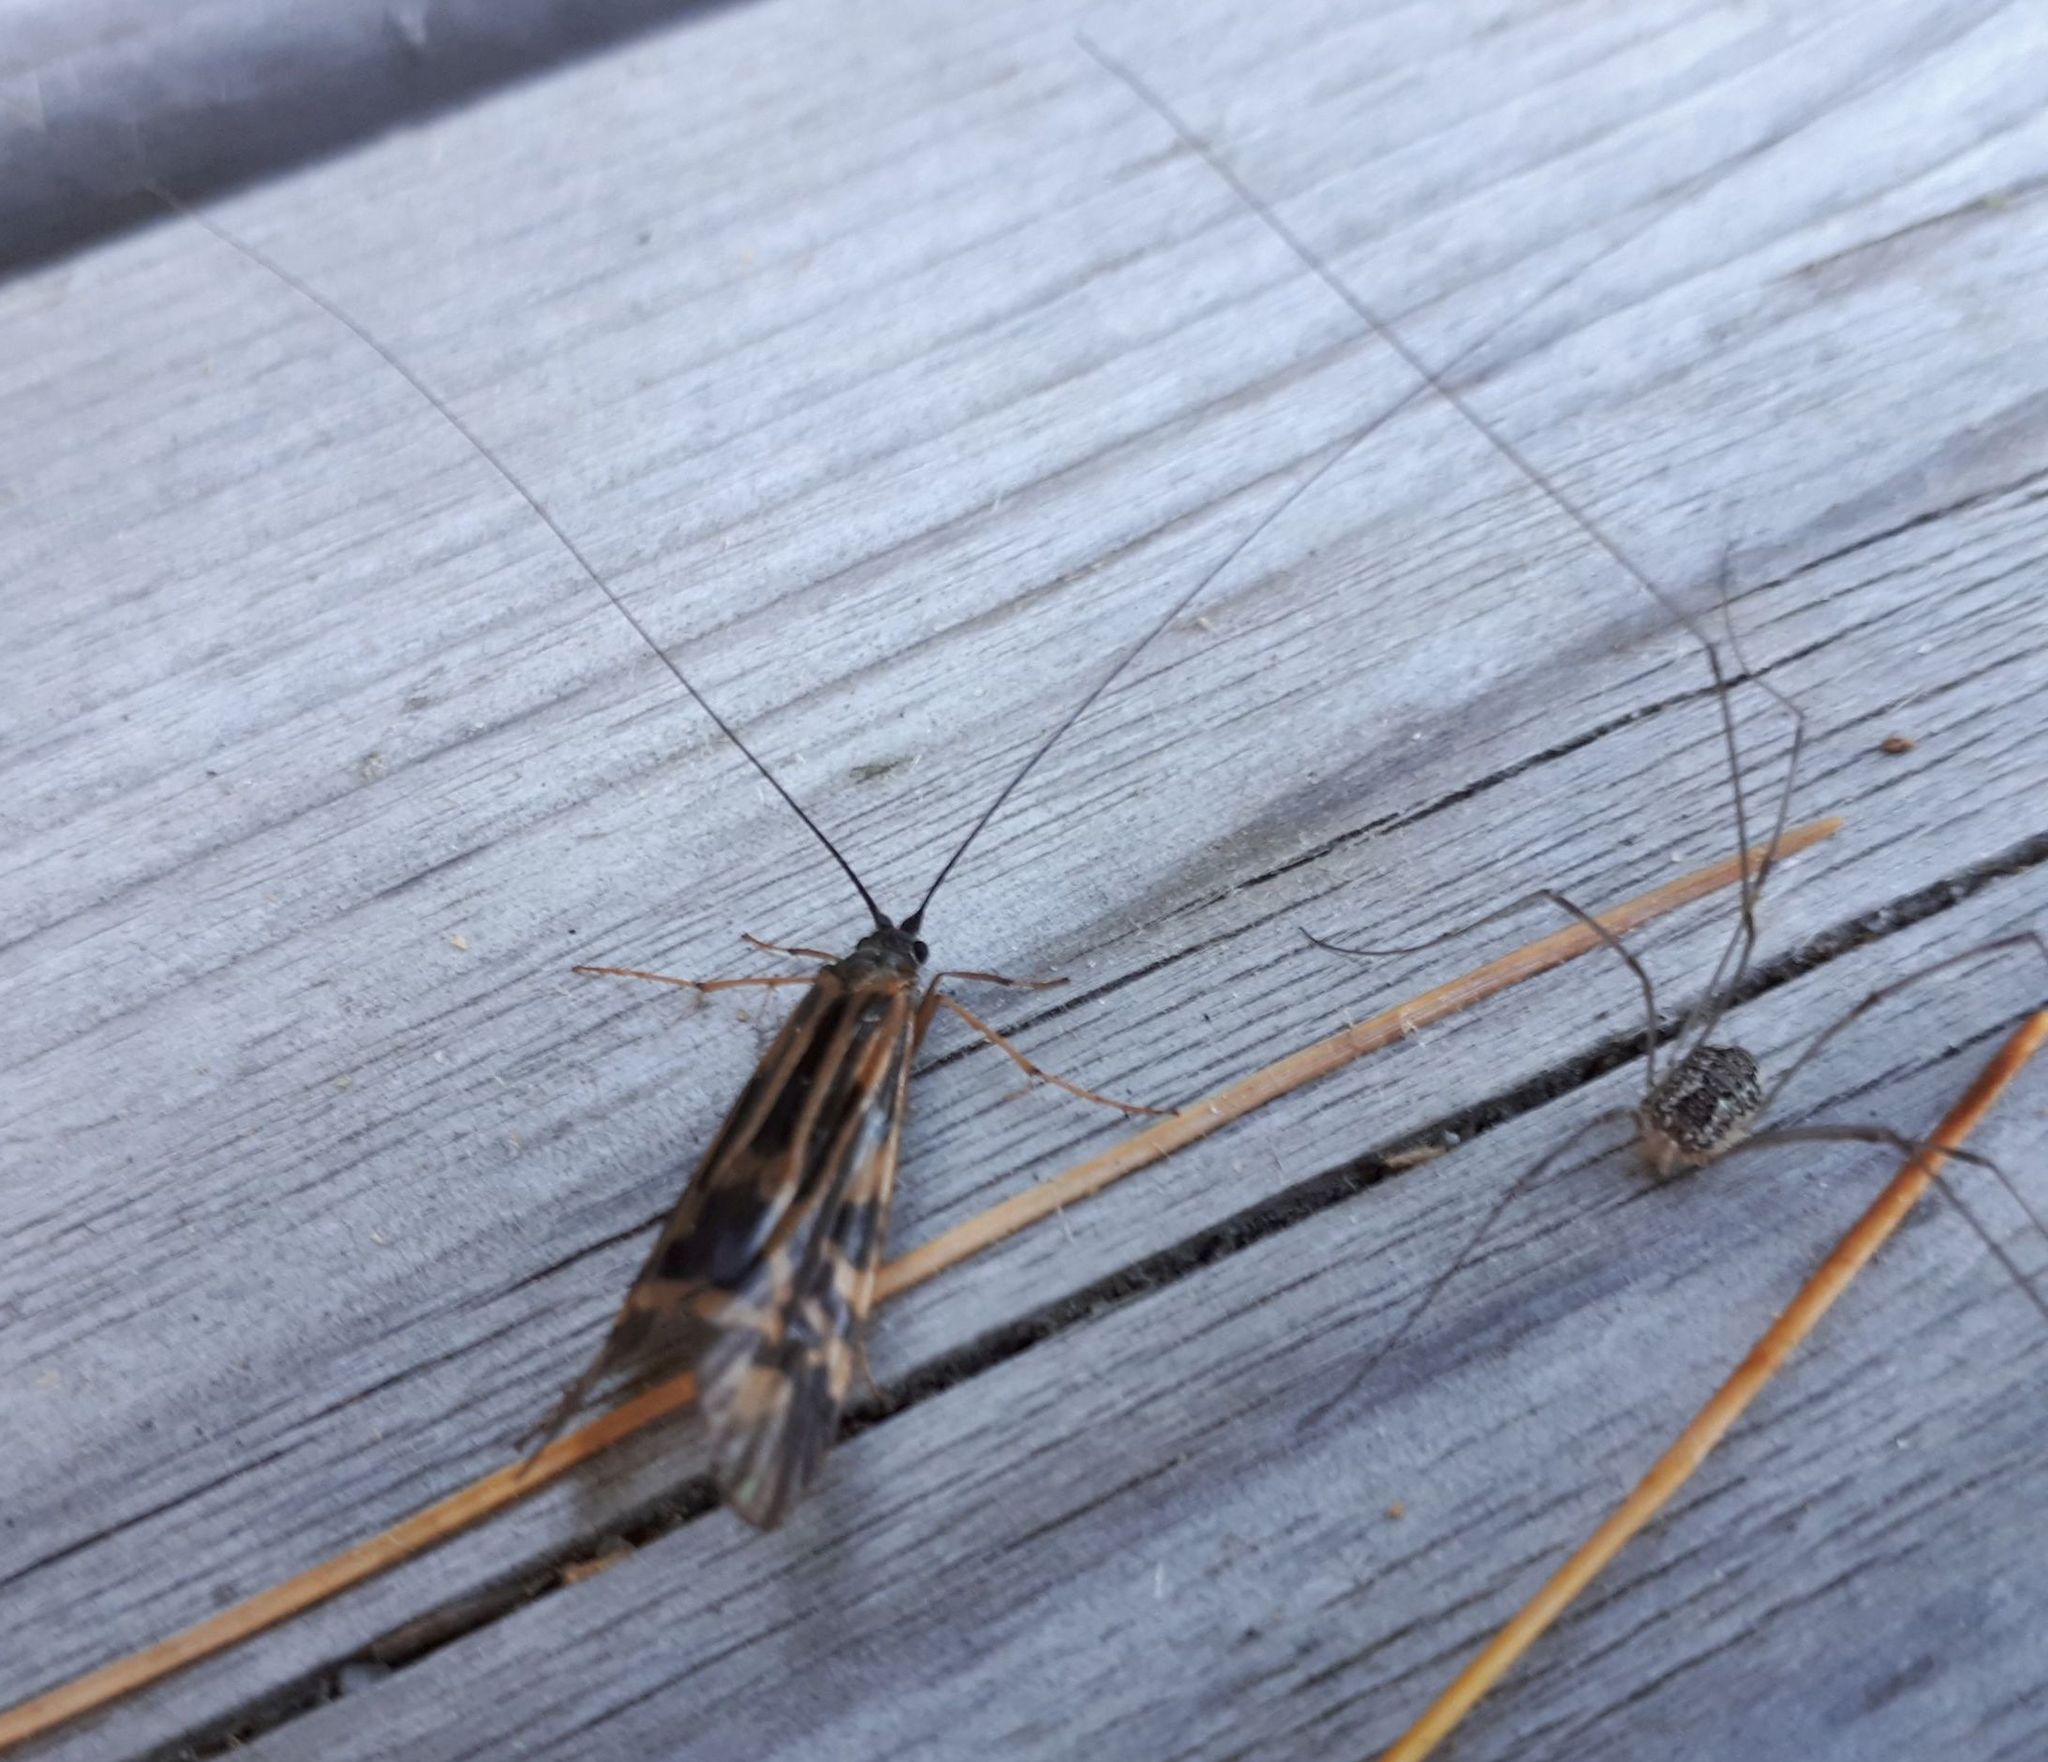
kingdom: Animalia
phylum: Arthropoda
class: Insecta
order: Trichoptera
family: Hydropsychidae
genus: Macrostemum
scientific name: Macrostemum zebratum
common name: Zebra caddisfly
